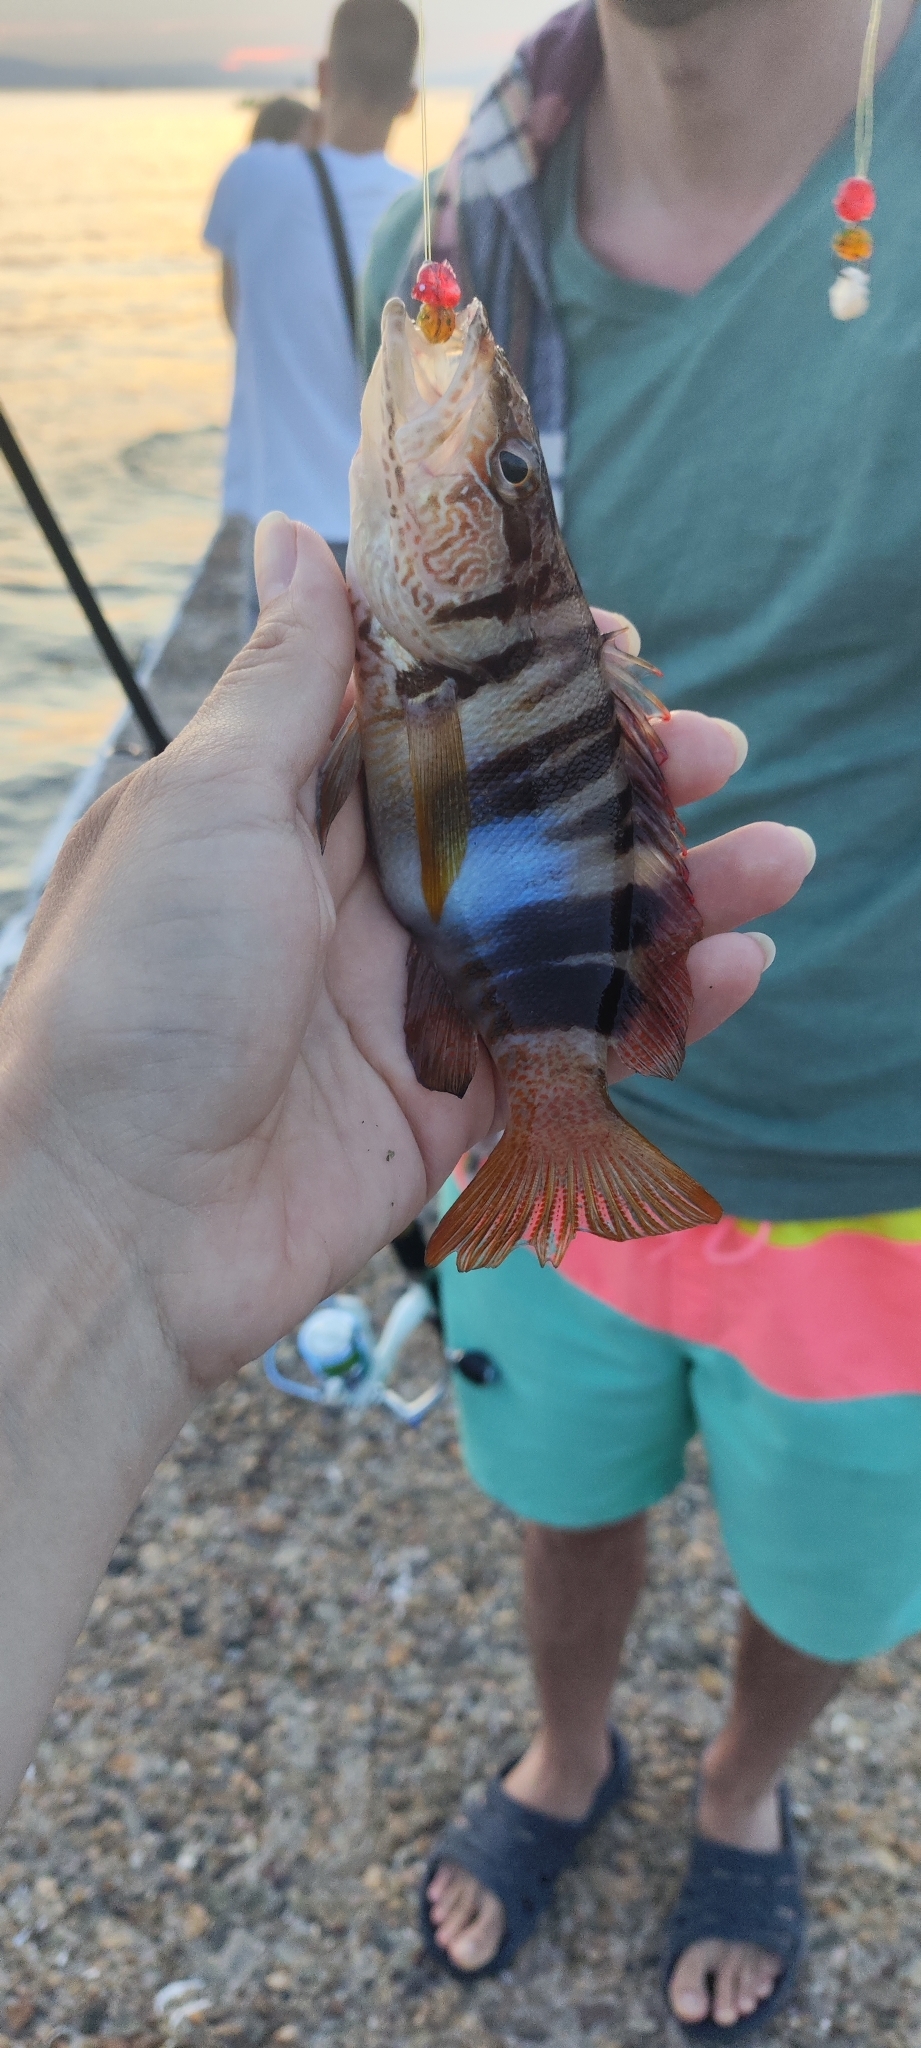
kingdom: Animalia
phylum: Chordata
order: Perciformes
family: Serranidae
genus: Serranus
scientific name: Serranus scriba
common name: Painted comber
